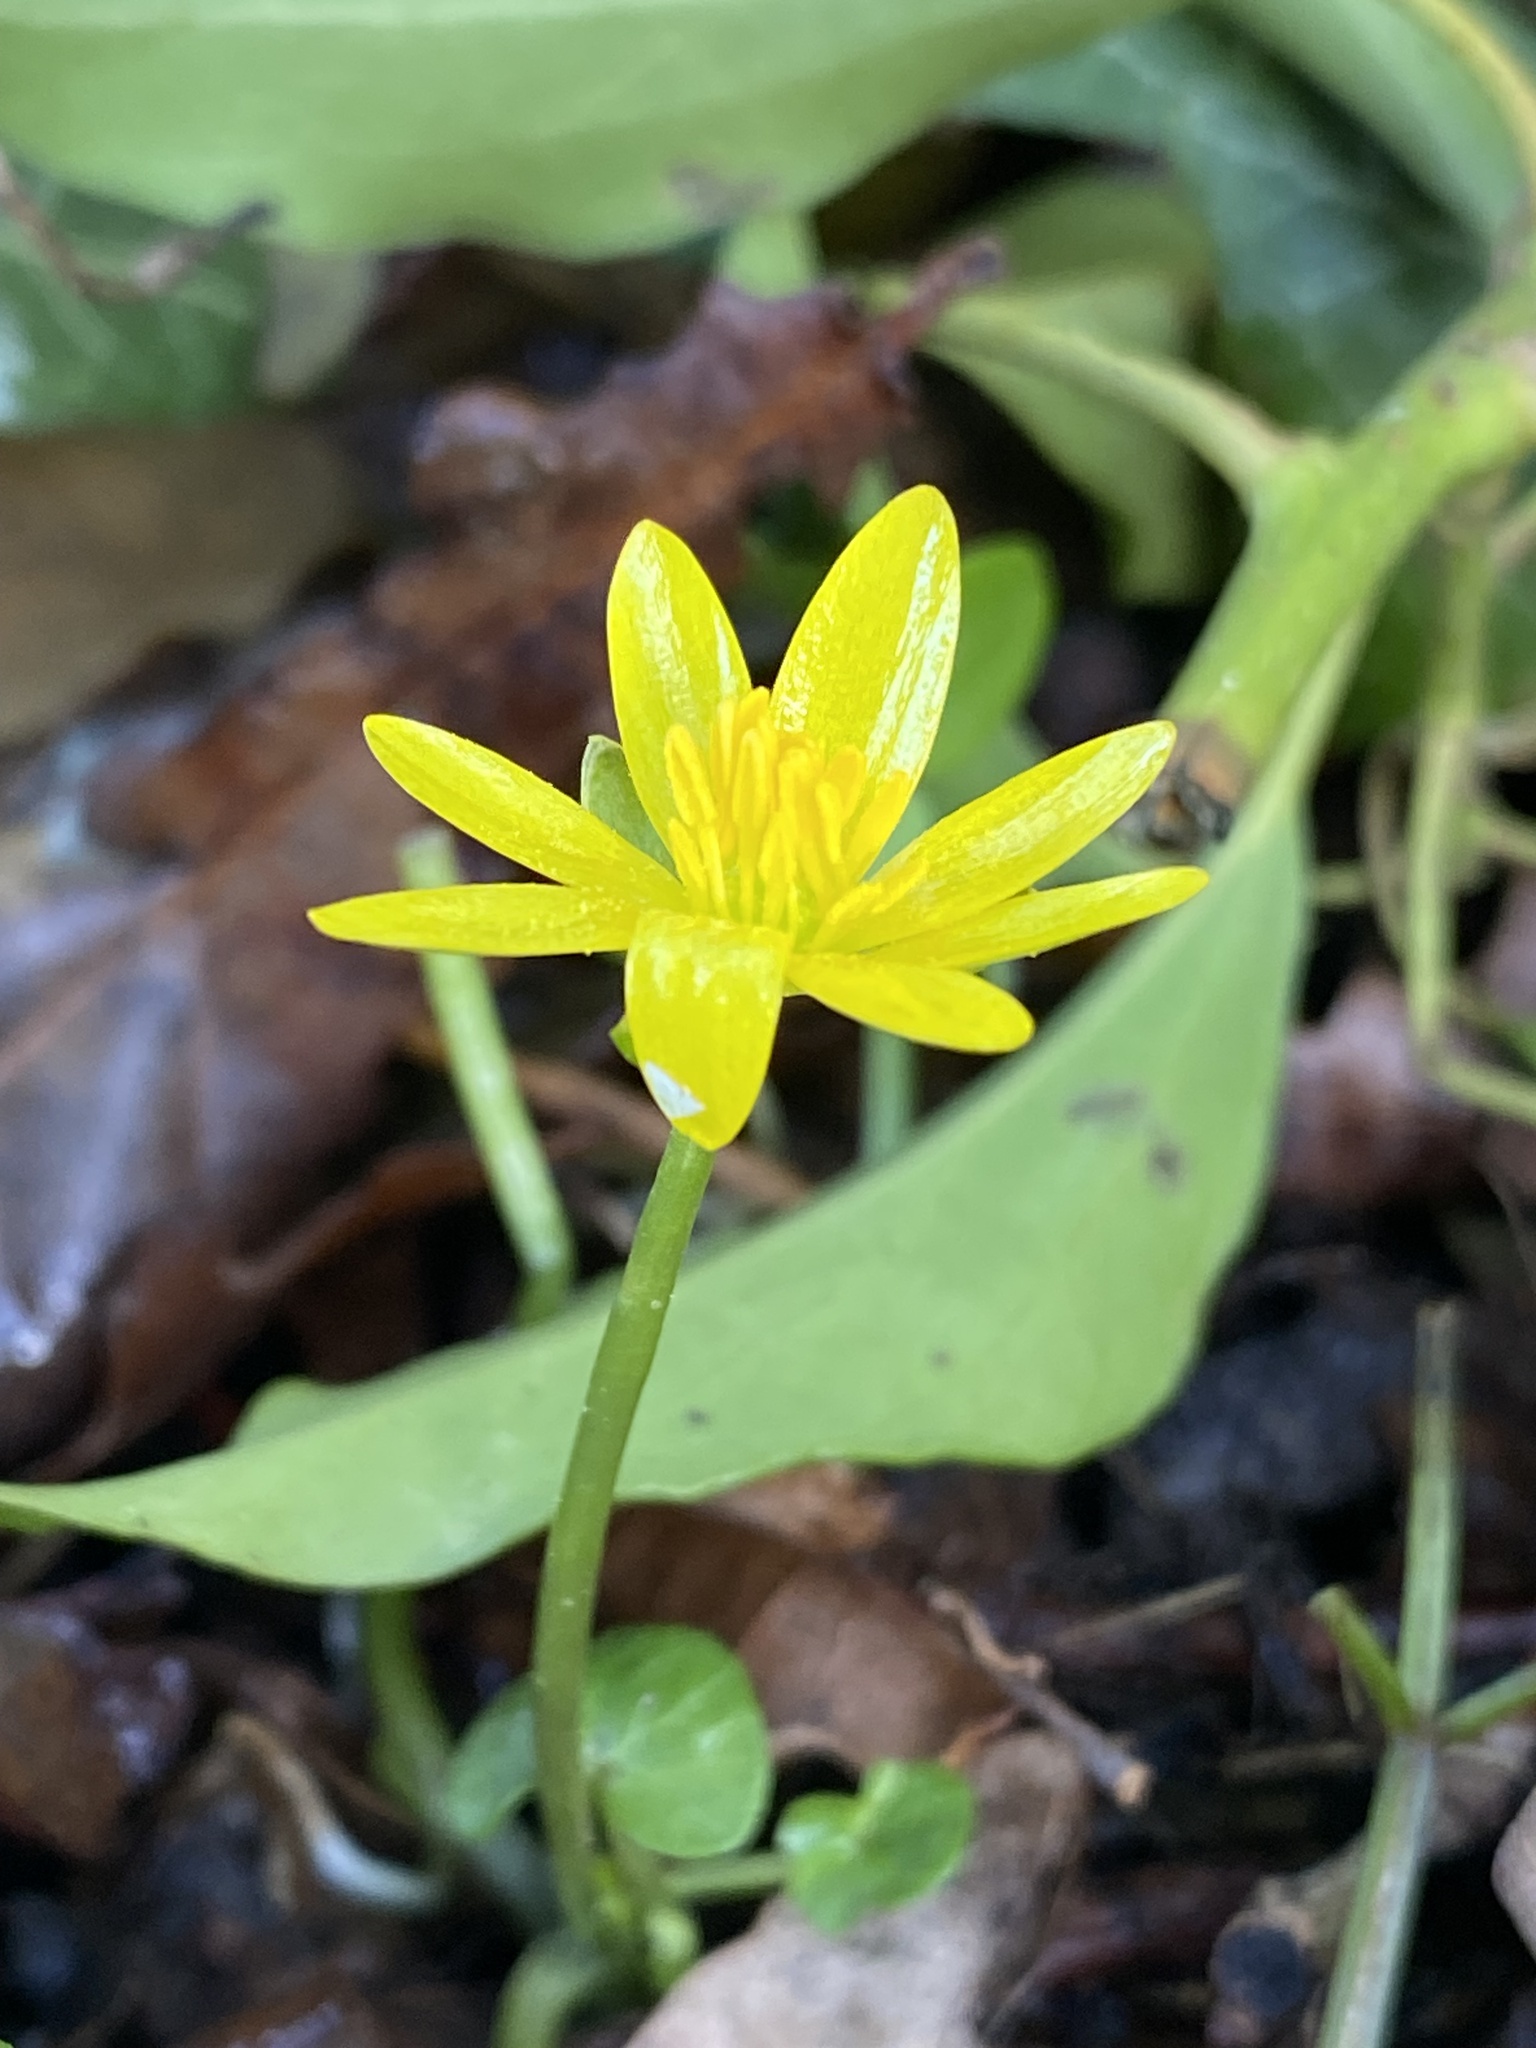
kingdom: Plantae
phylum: Tracheophyta
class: Magnoliopsida
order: Ranunculales
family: Ranunculaceae
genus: Ficaria
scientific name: Ficaria verna
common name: Lesser celandine
